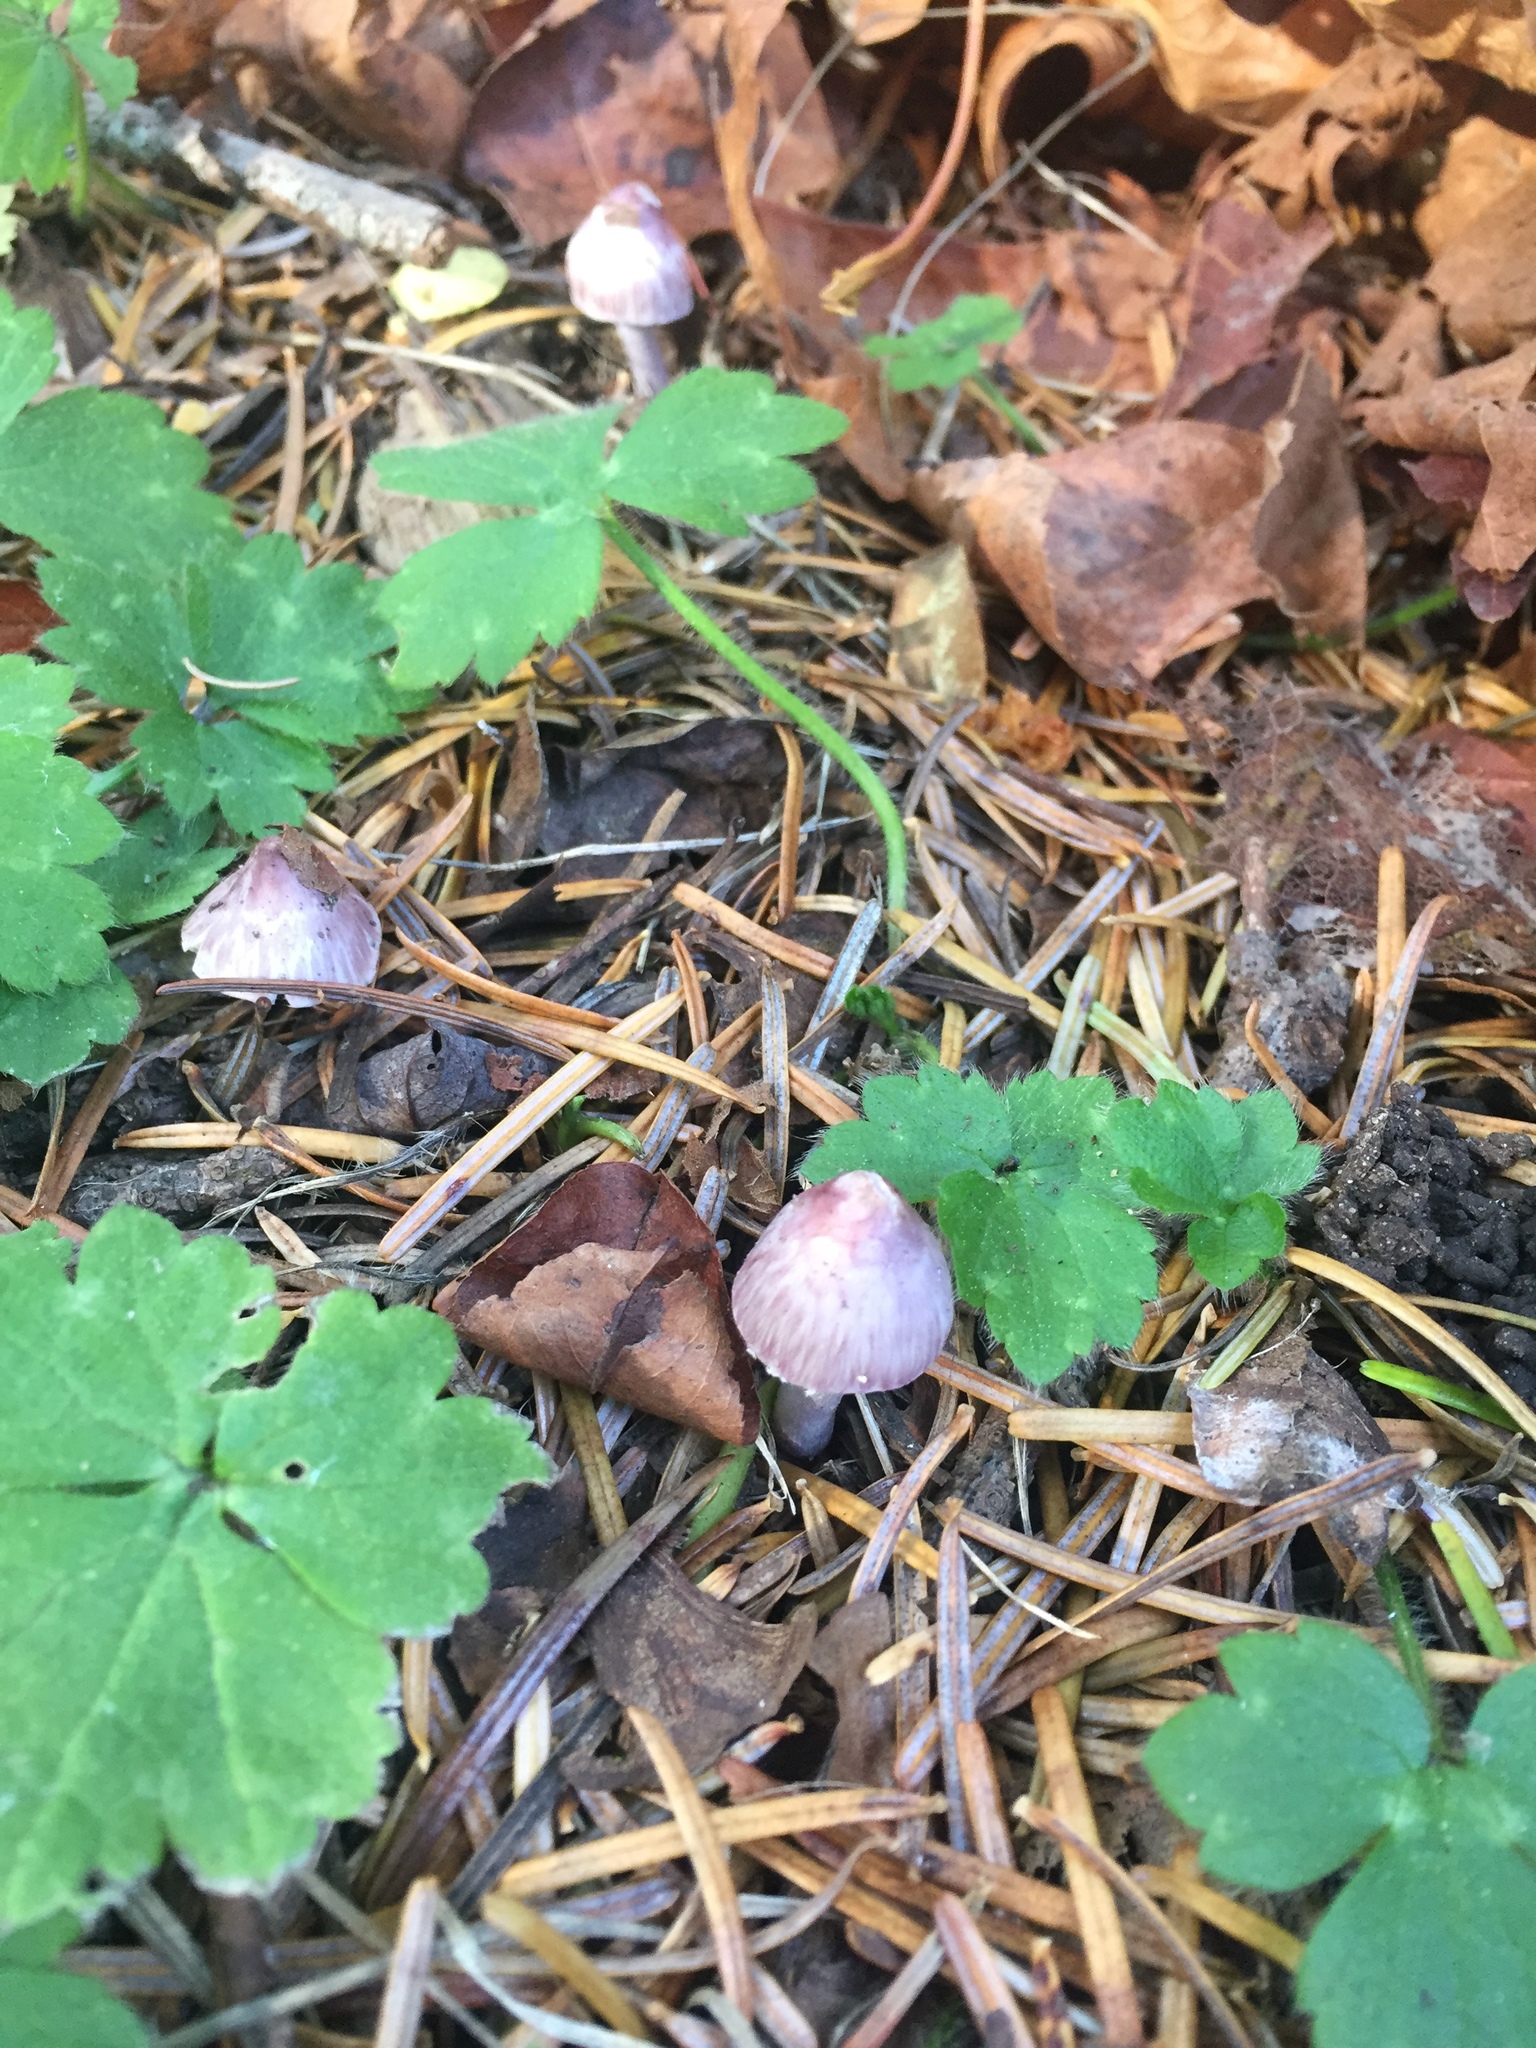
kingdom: Fungi
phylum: Basidiomycota
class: Agaricomycetes
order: Agaricales
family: Inocybaceae
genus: Inocybe
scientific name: Inocybe geophylla
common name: White fibrecap
